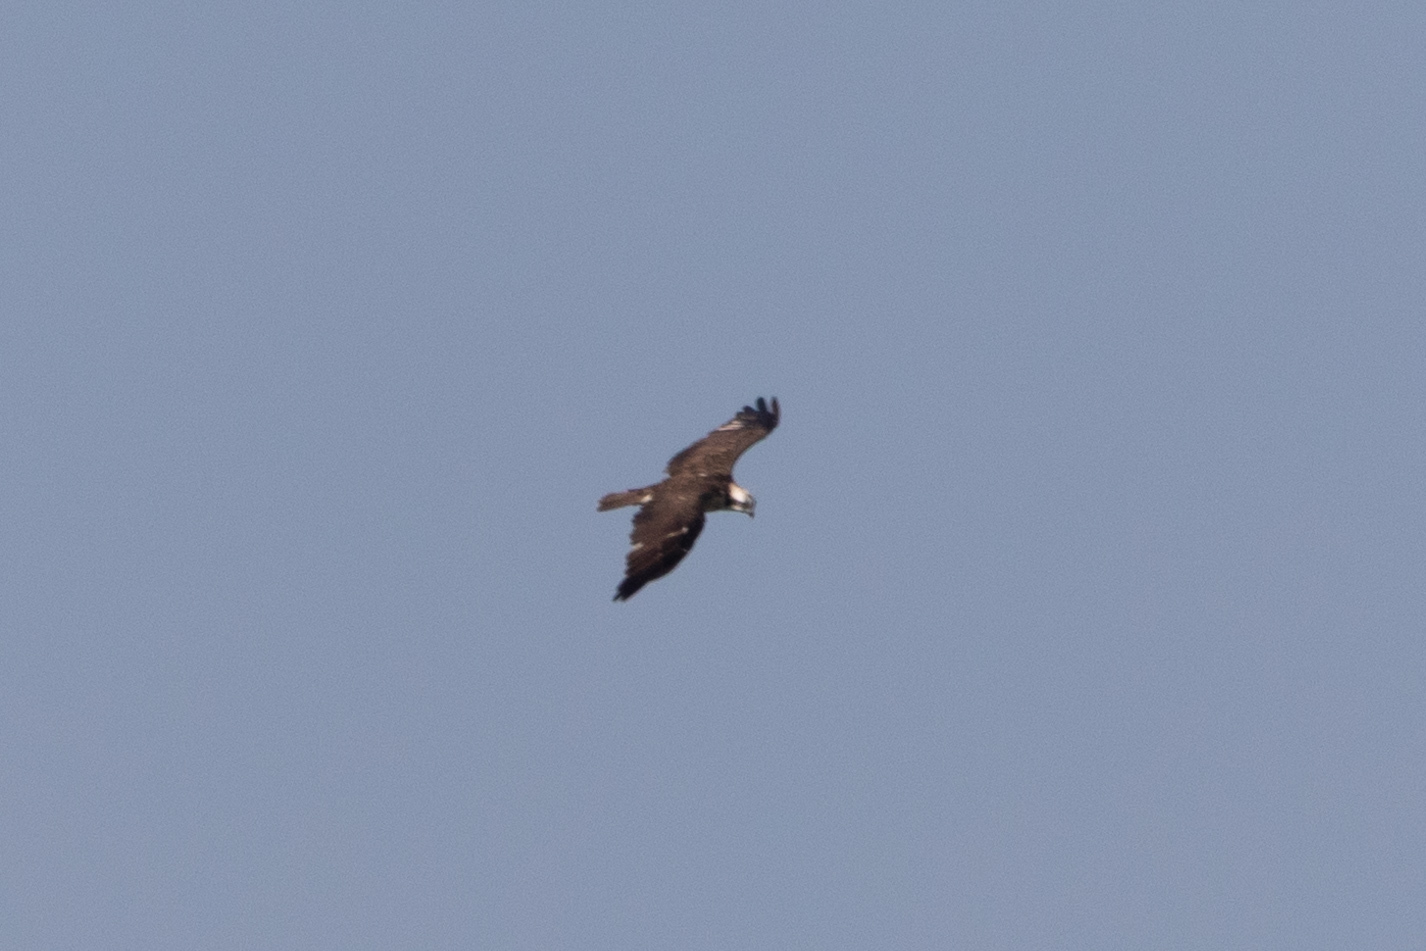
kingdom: Animalia
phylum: Chordata
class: Aves
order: Accipitriformes
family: Pandionidae
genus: Pandion
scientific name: Pandion haliaetus
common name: Osprey
